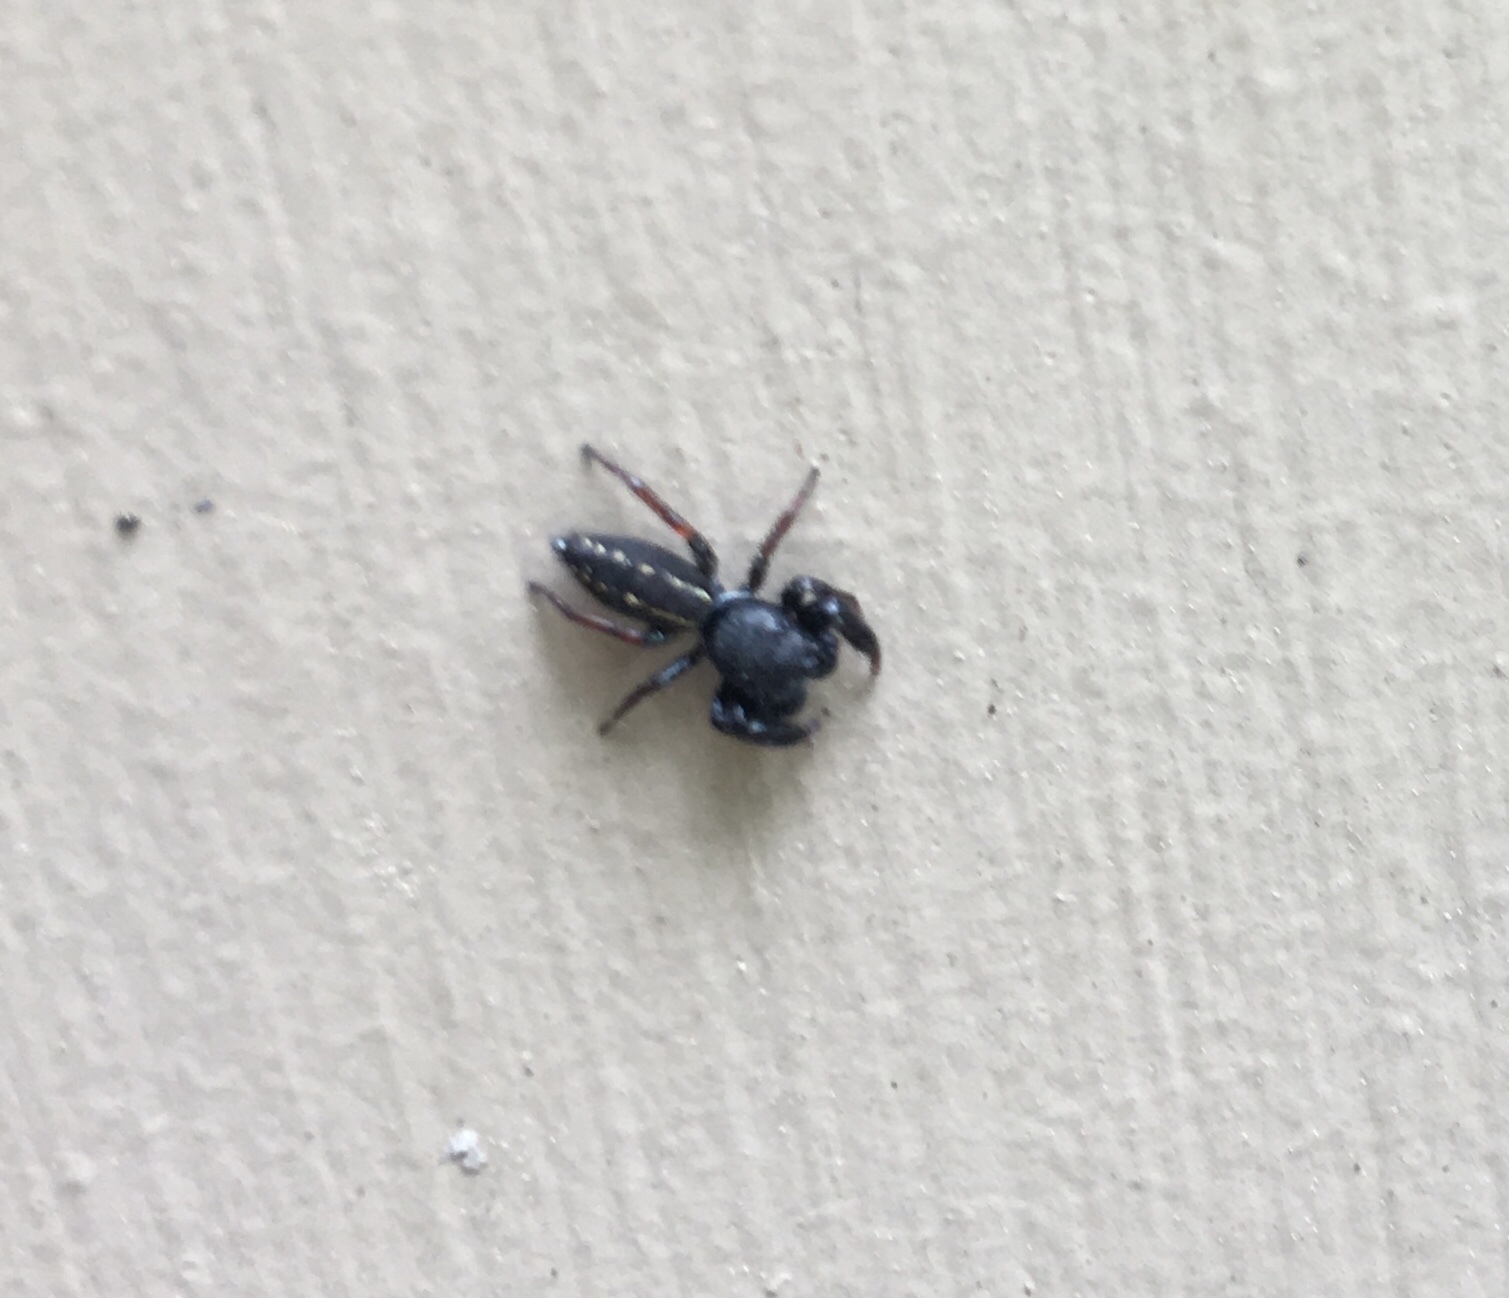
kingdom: Animalia
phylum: Arthropoda
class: Arachnida
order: Araneae
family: Salticidae
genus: Metacyrba
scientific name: Metacyrba taeniola
